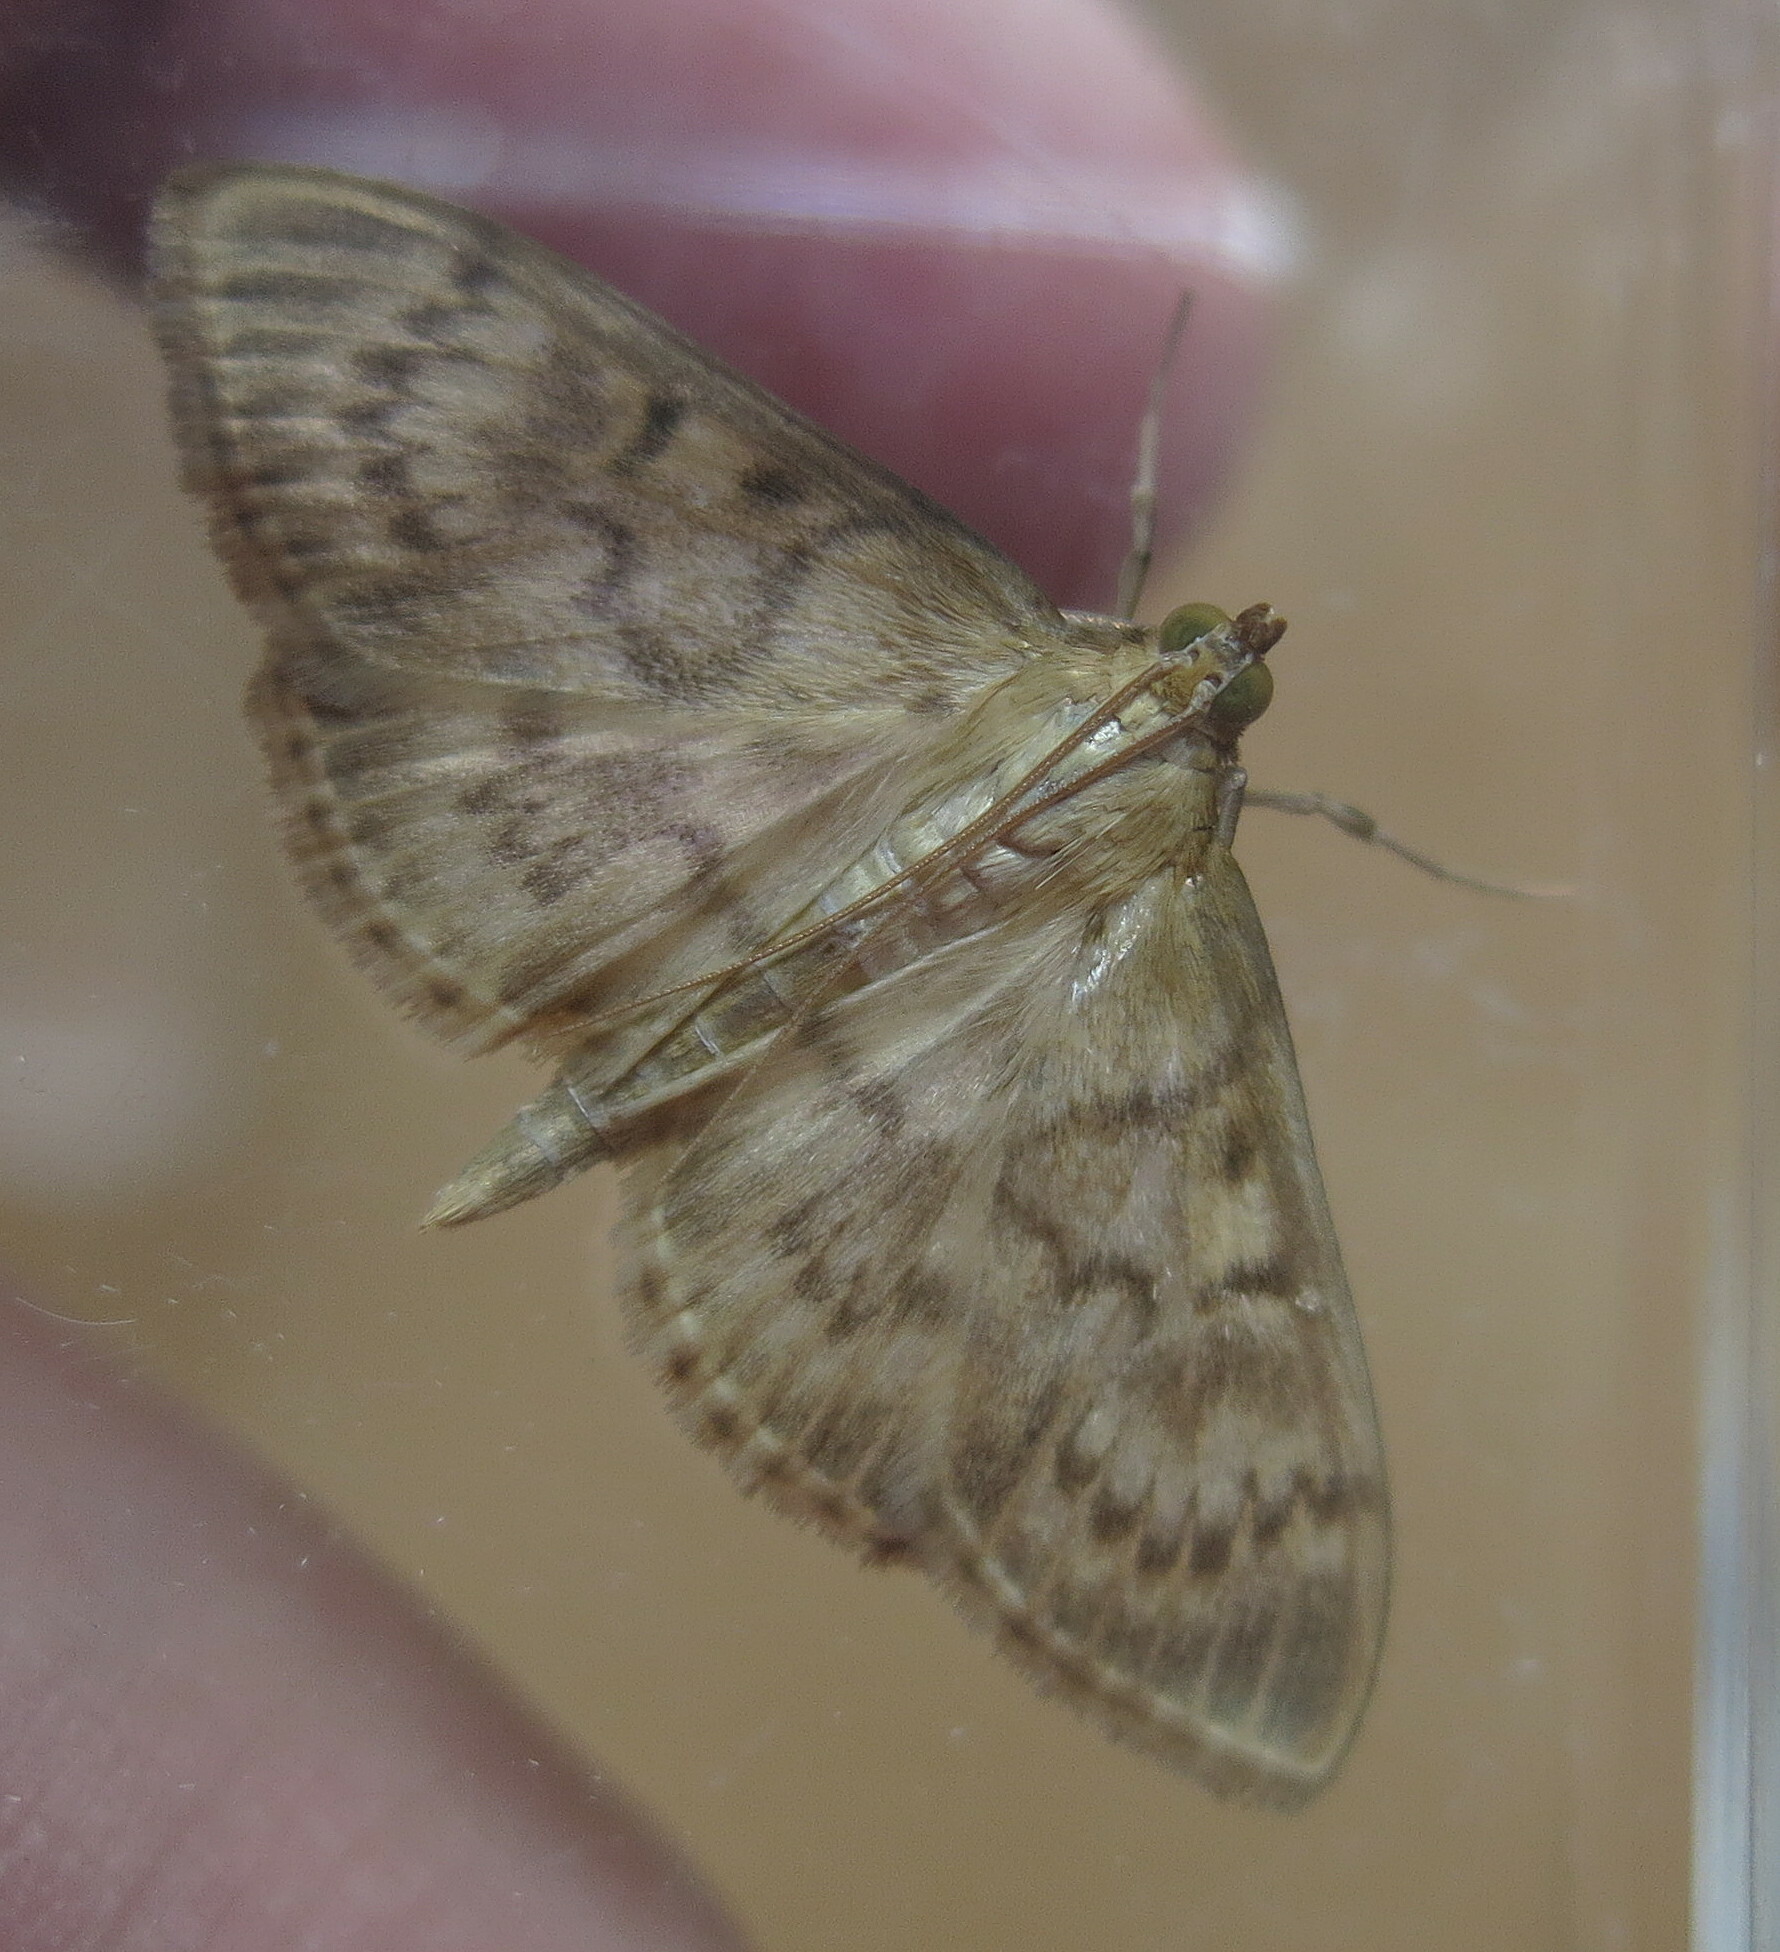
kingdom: Animalia
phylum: Arthropoda
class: Insecta
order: Lepidoptera
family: Crambidae
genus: Patania
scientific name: Patania ruralis
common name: Mother of pearl
